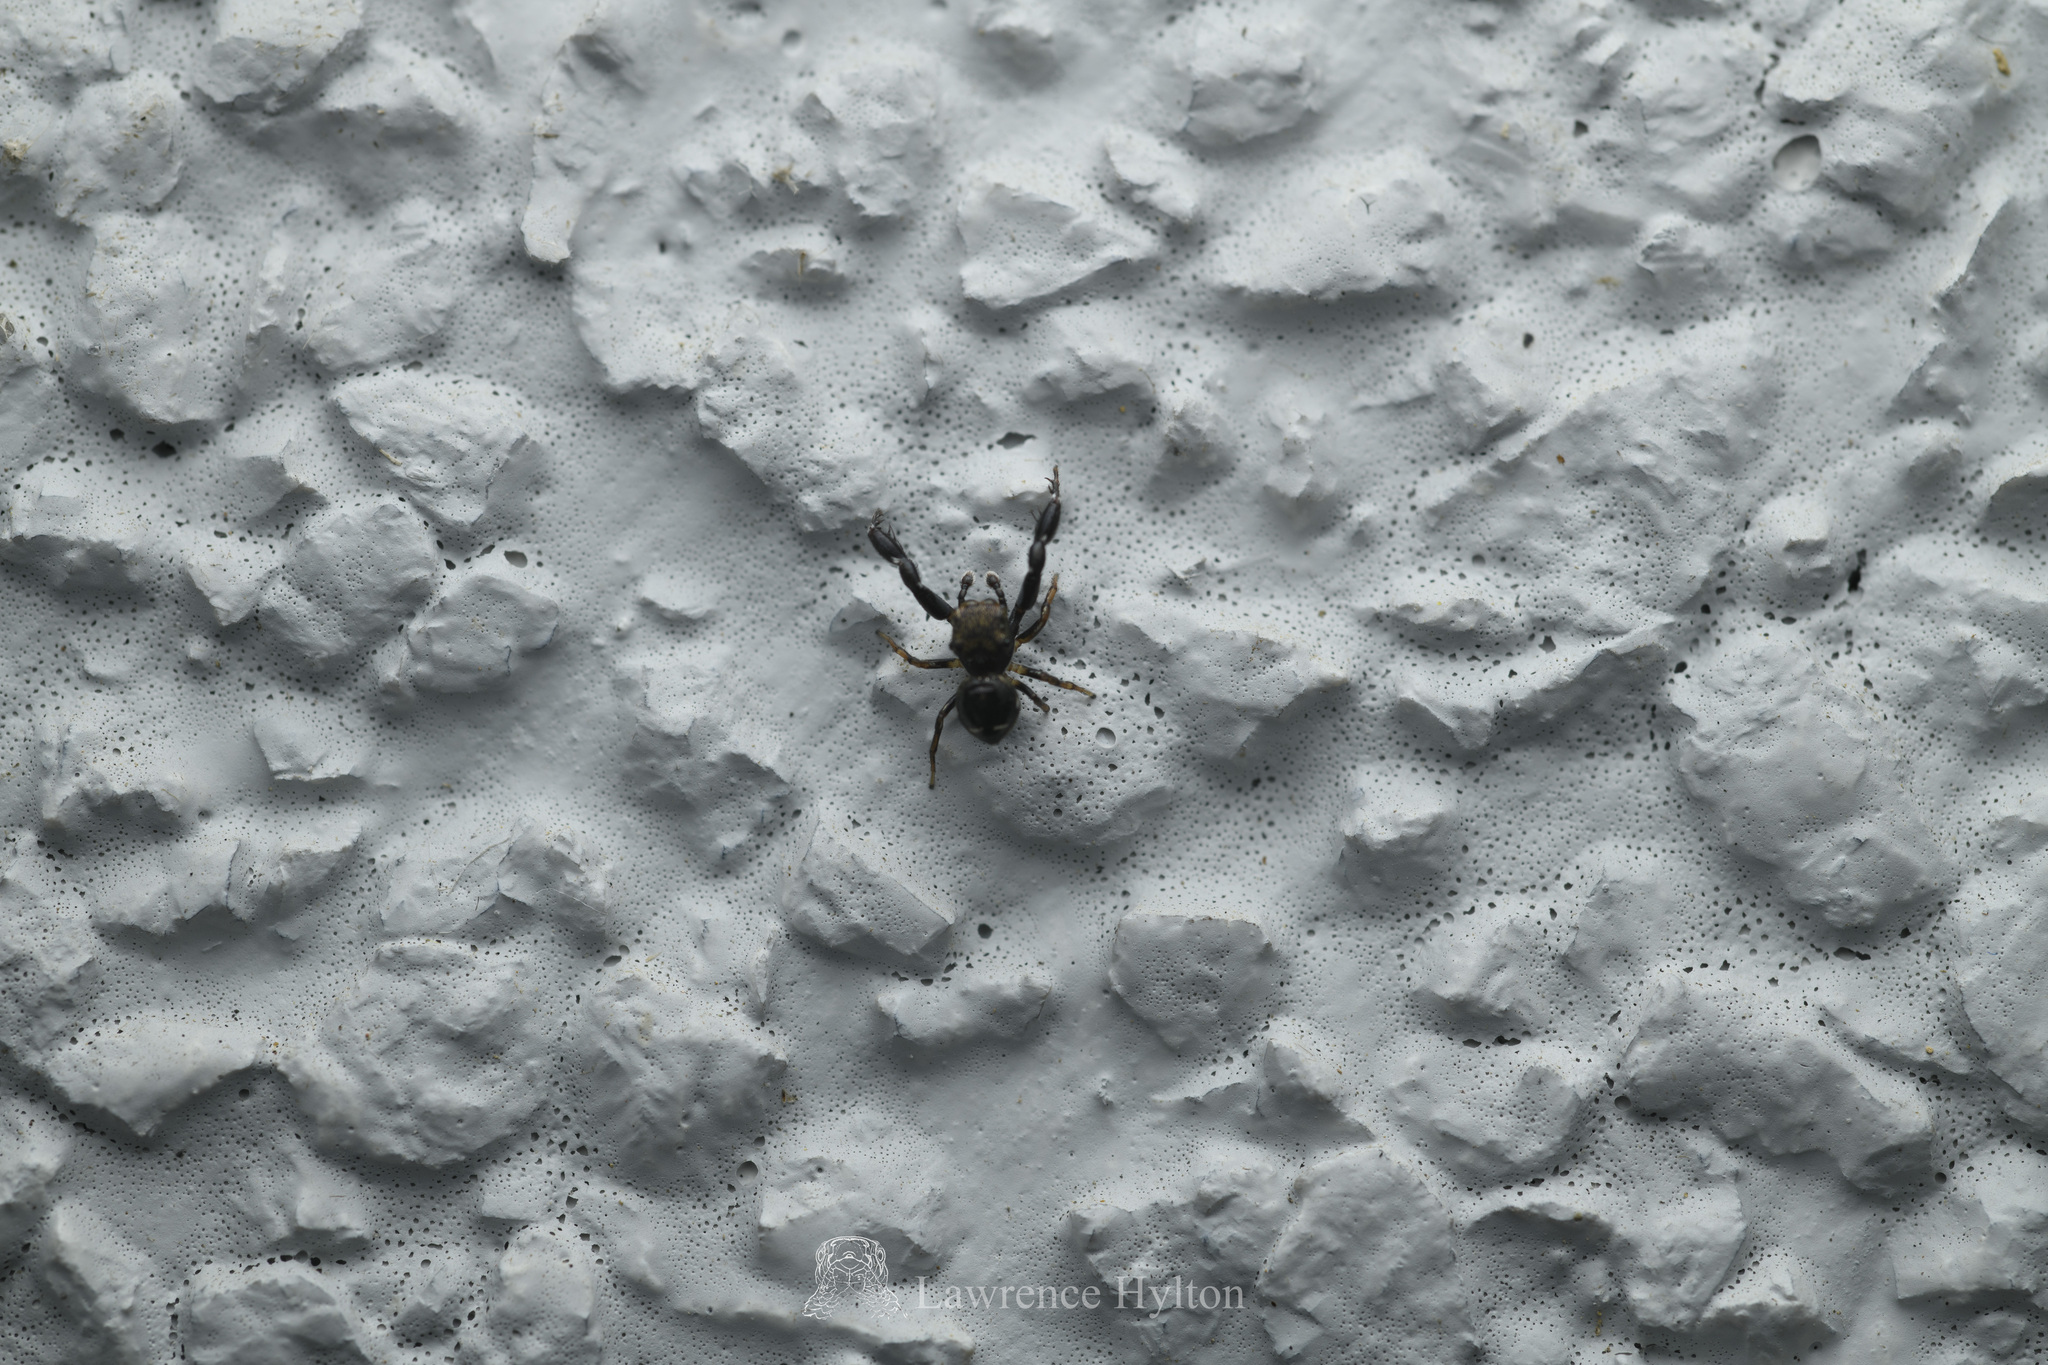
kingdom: Animalia
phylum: Arthropoda
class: Arachnida
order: Araneae
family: Salticidae
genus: Harmochirus
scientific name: Harmochirus insulanus
